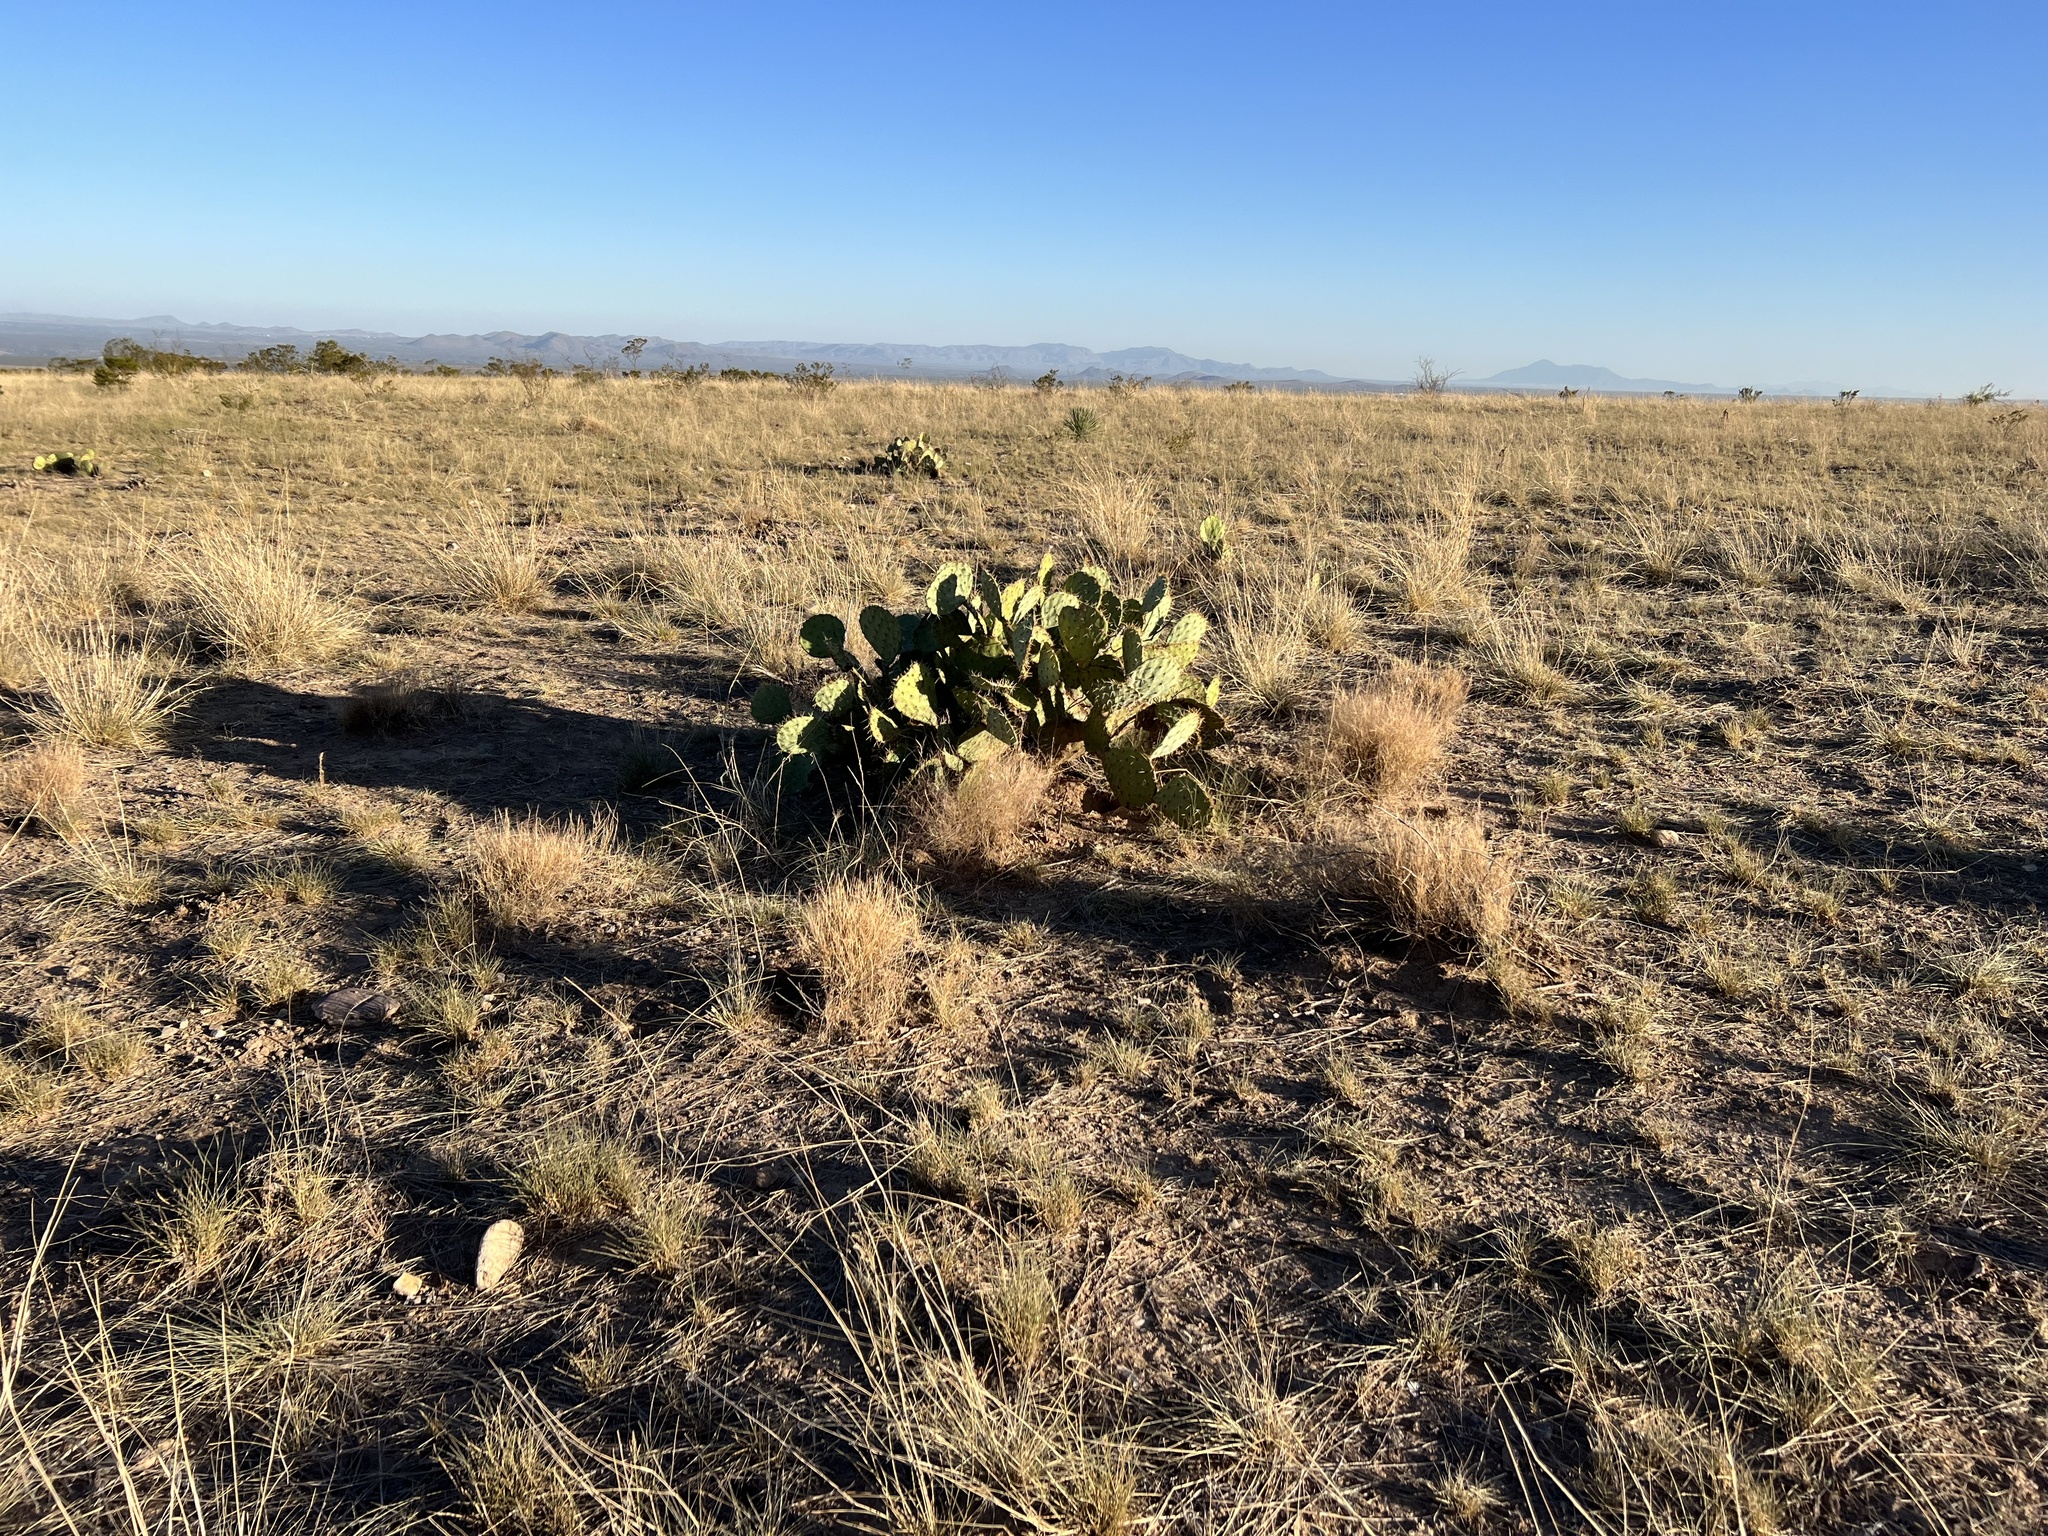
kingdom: Plantae
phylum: Tracheophyta
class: Magnoliopsida
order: Caryophyllales
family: Cactaceae
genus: Opuntia
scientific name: Opuntia engelmannii
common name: Cactus-apple
